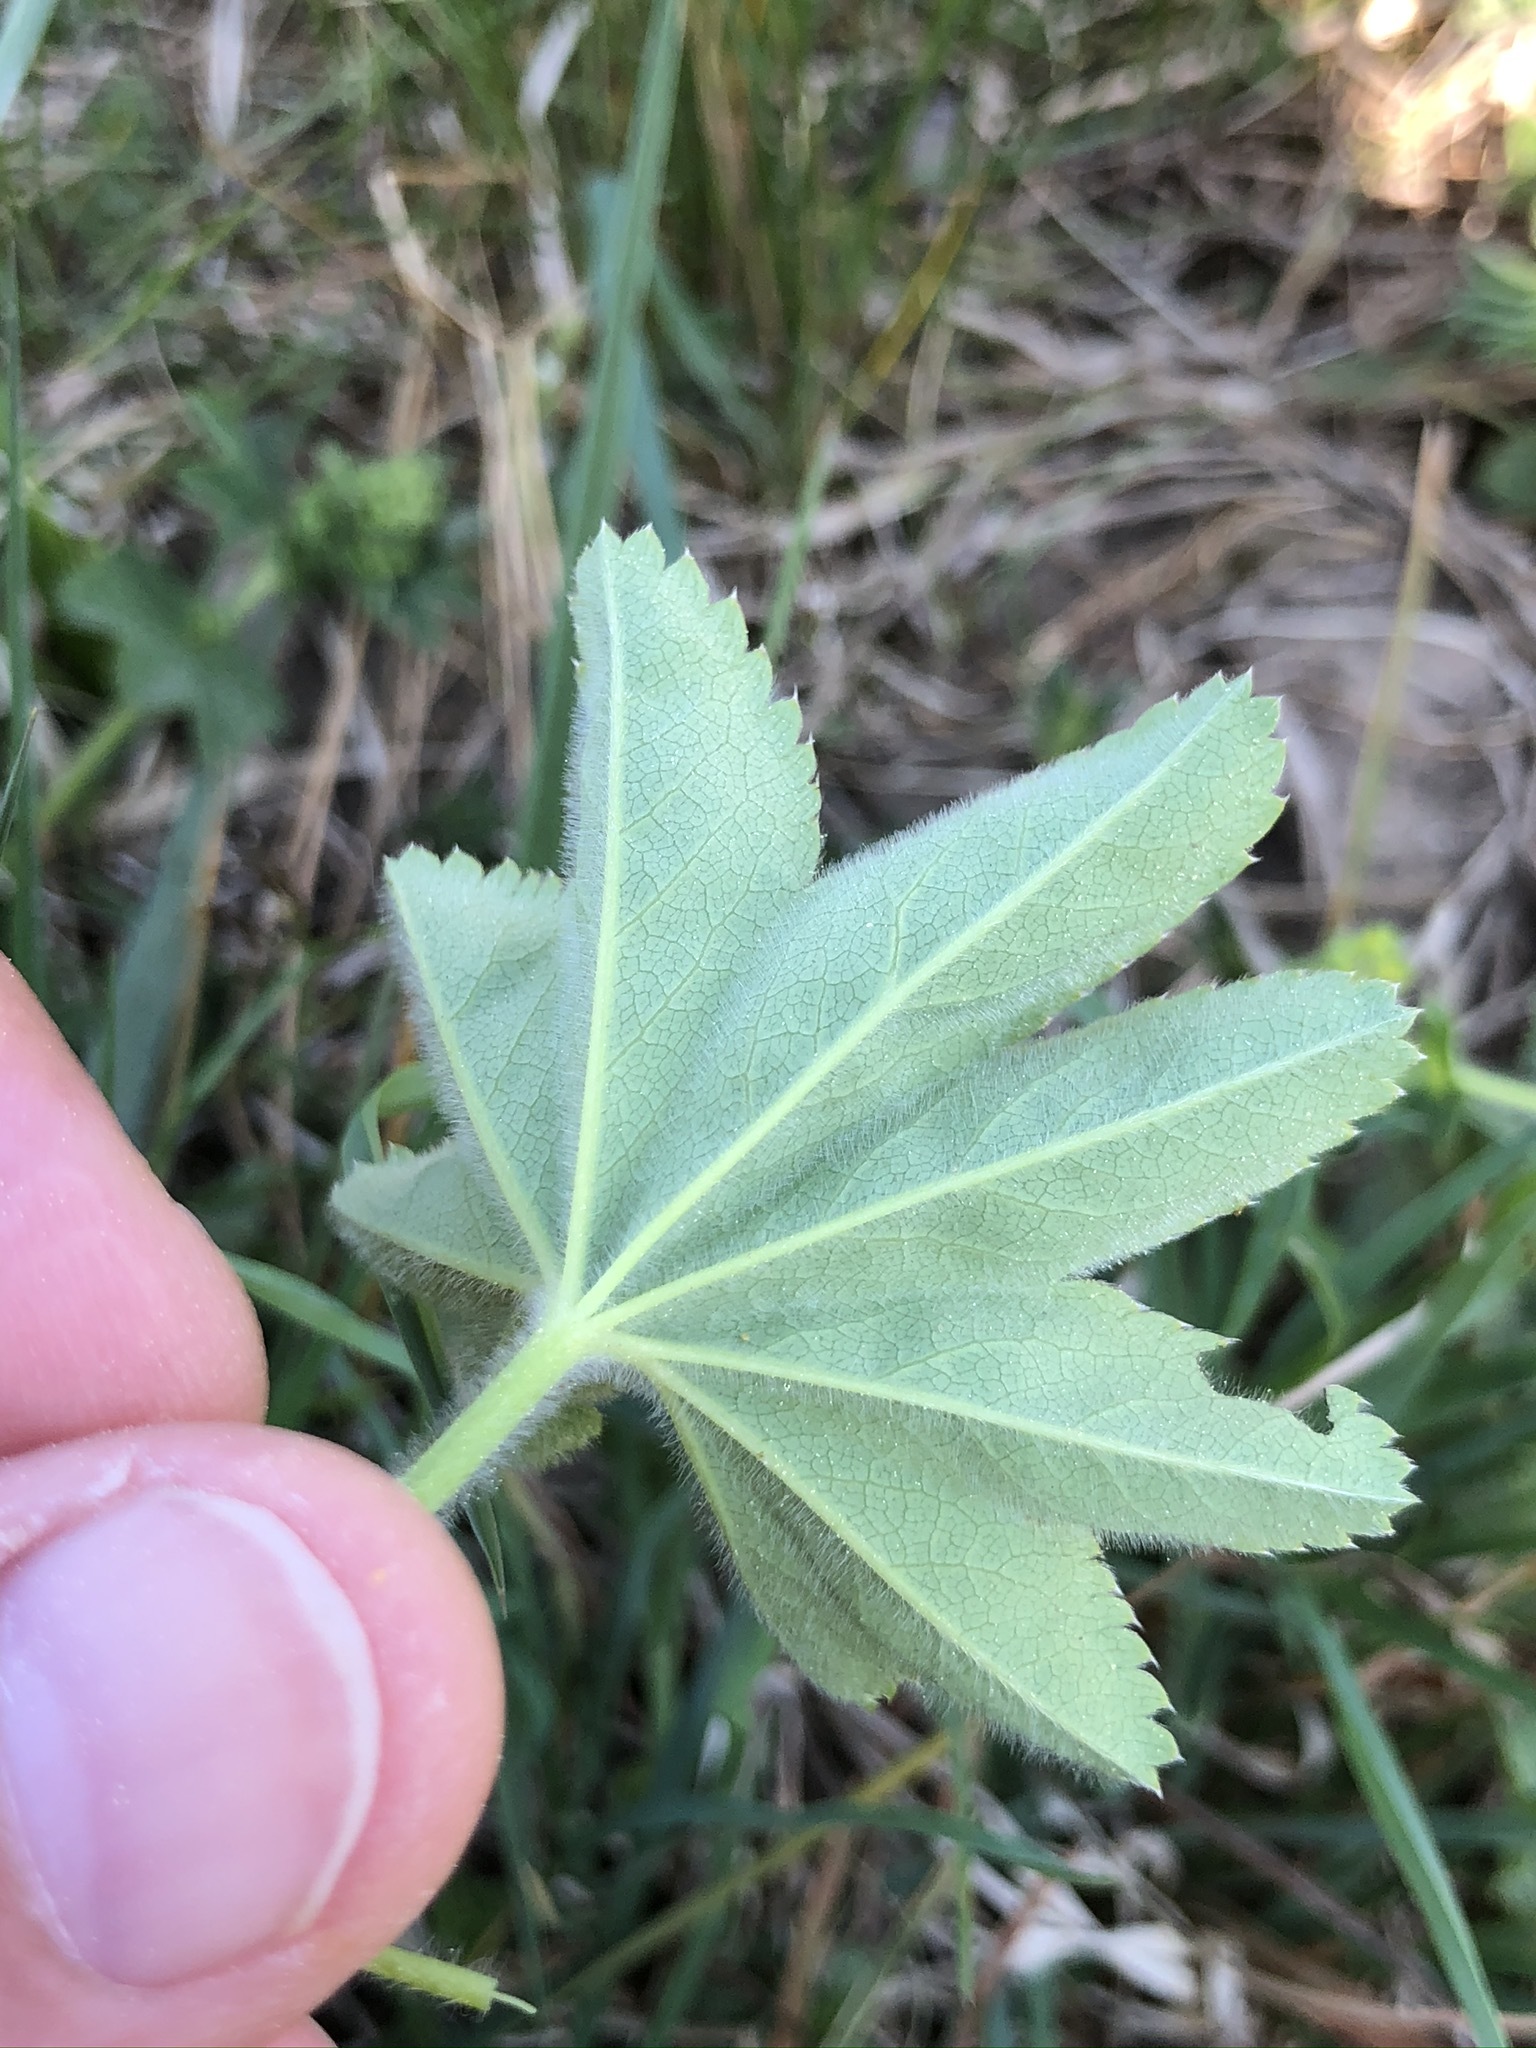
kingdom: Plantae
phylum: Tracheophyta
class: Magnoliopsida
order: Rosales
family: Rosaceae
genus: Alchemilla
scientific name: Alchemilla monticola
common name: Hairy lady's mantle
